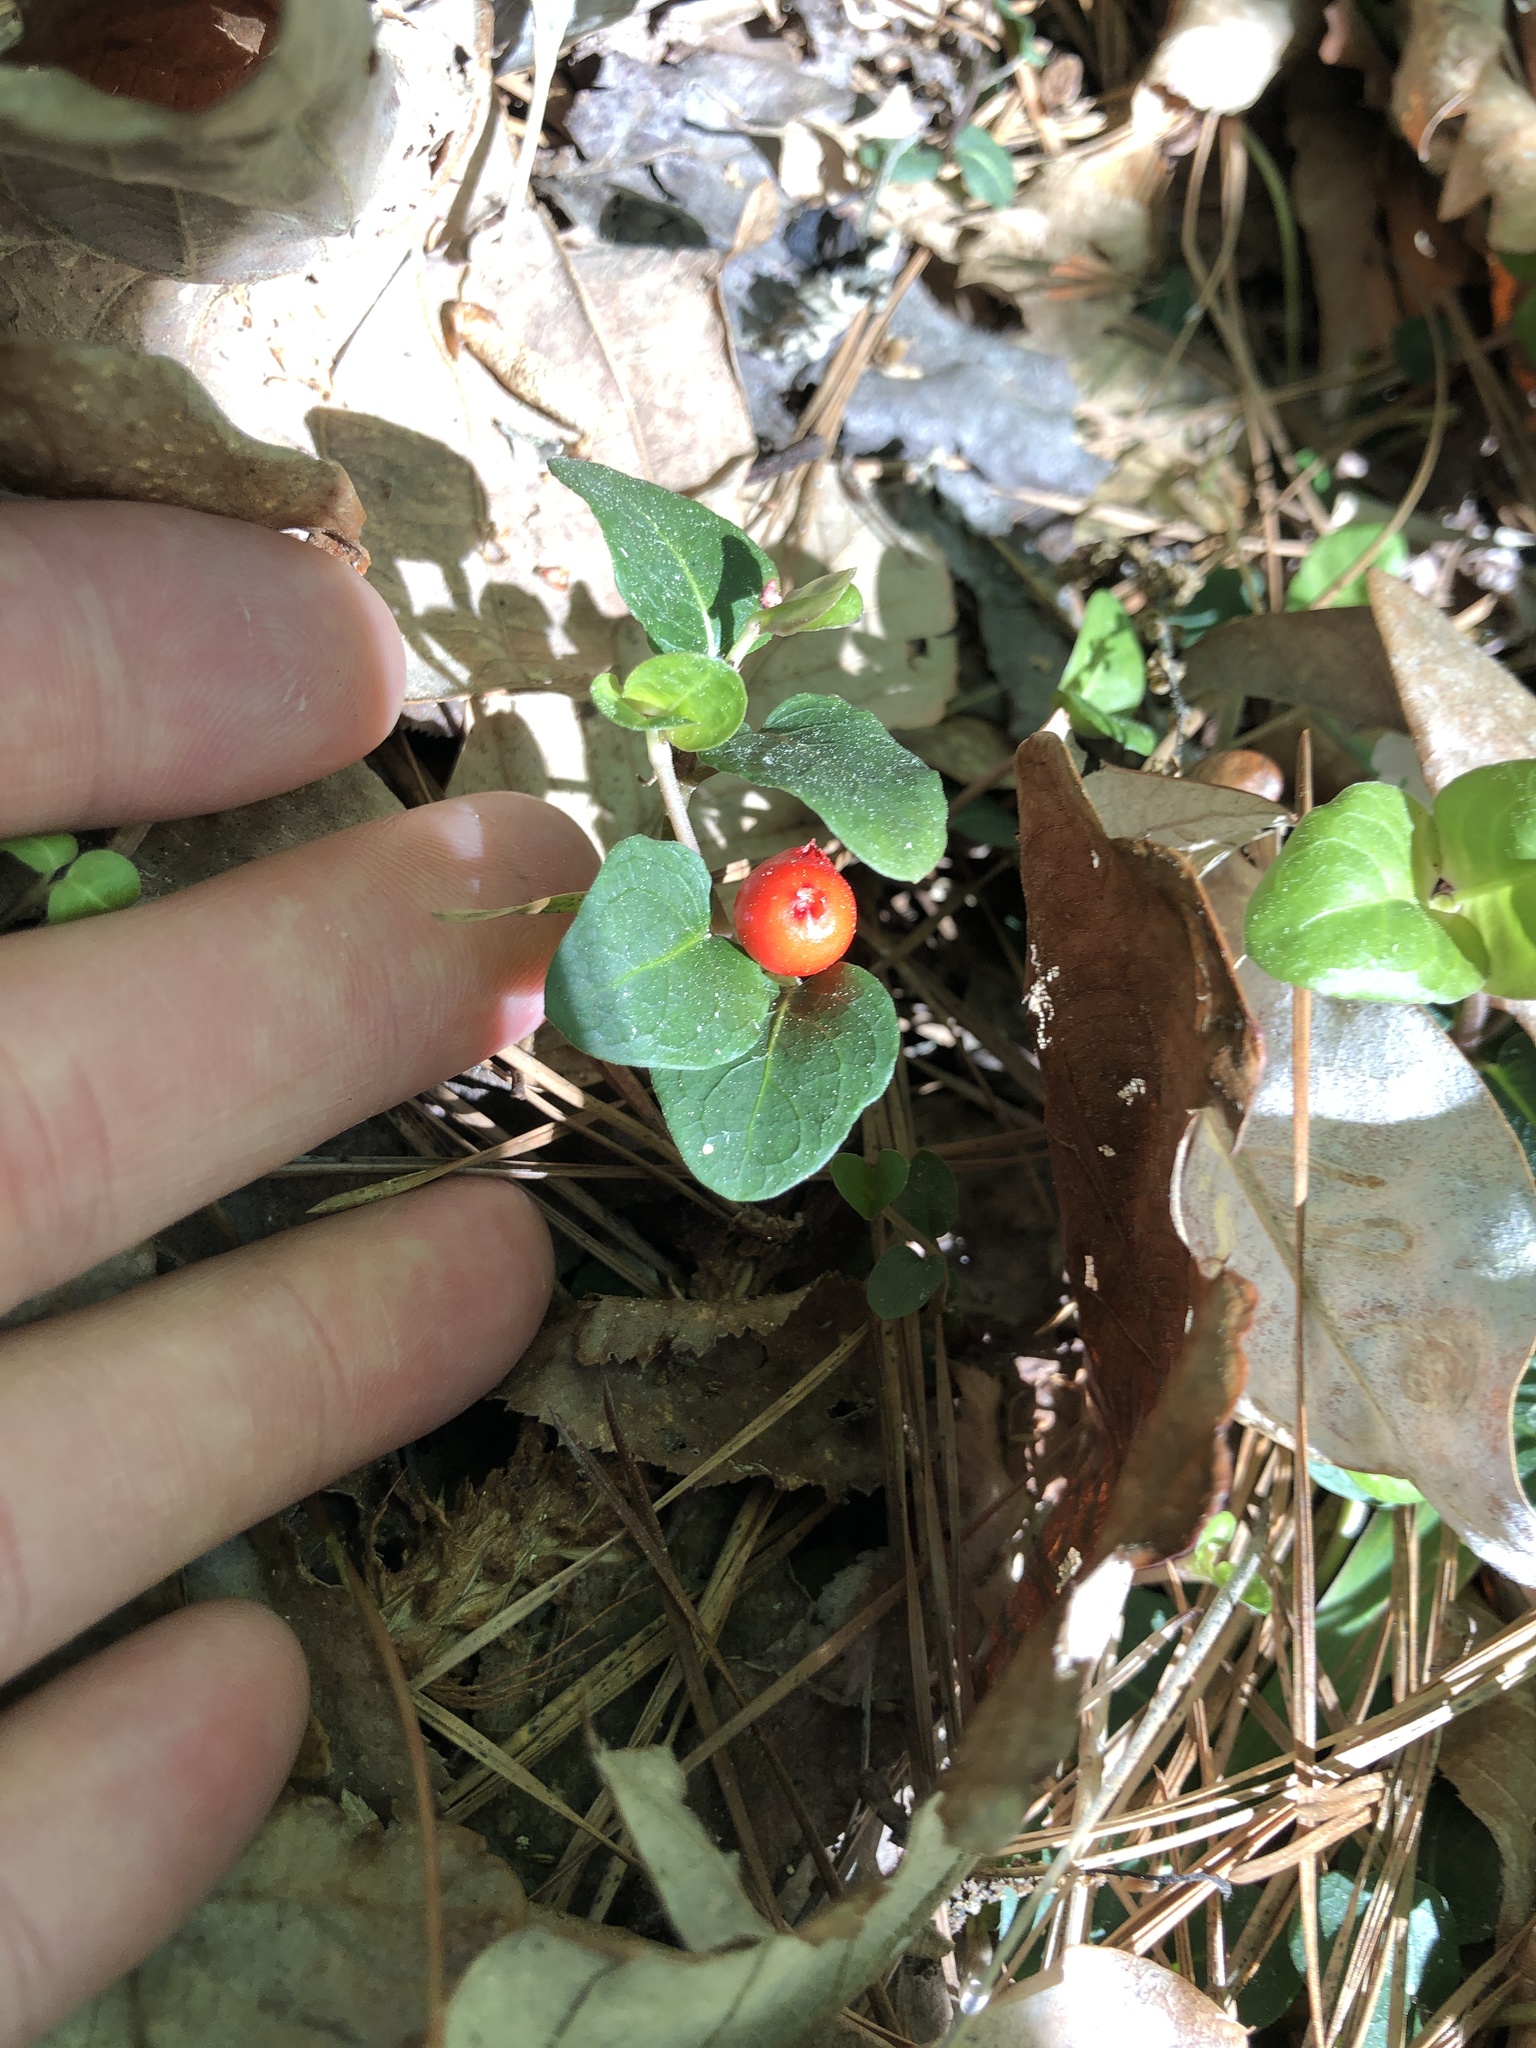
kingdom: Plantae
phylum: Tracheophyta
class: Magnoliopsida
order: Gentianales
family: Rubiaceae
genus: Mitchella
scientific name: Mitchella repens
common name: Partridge-berry
